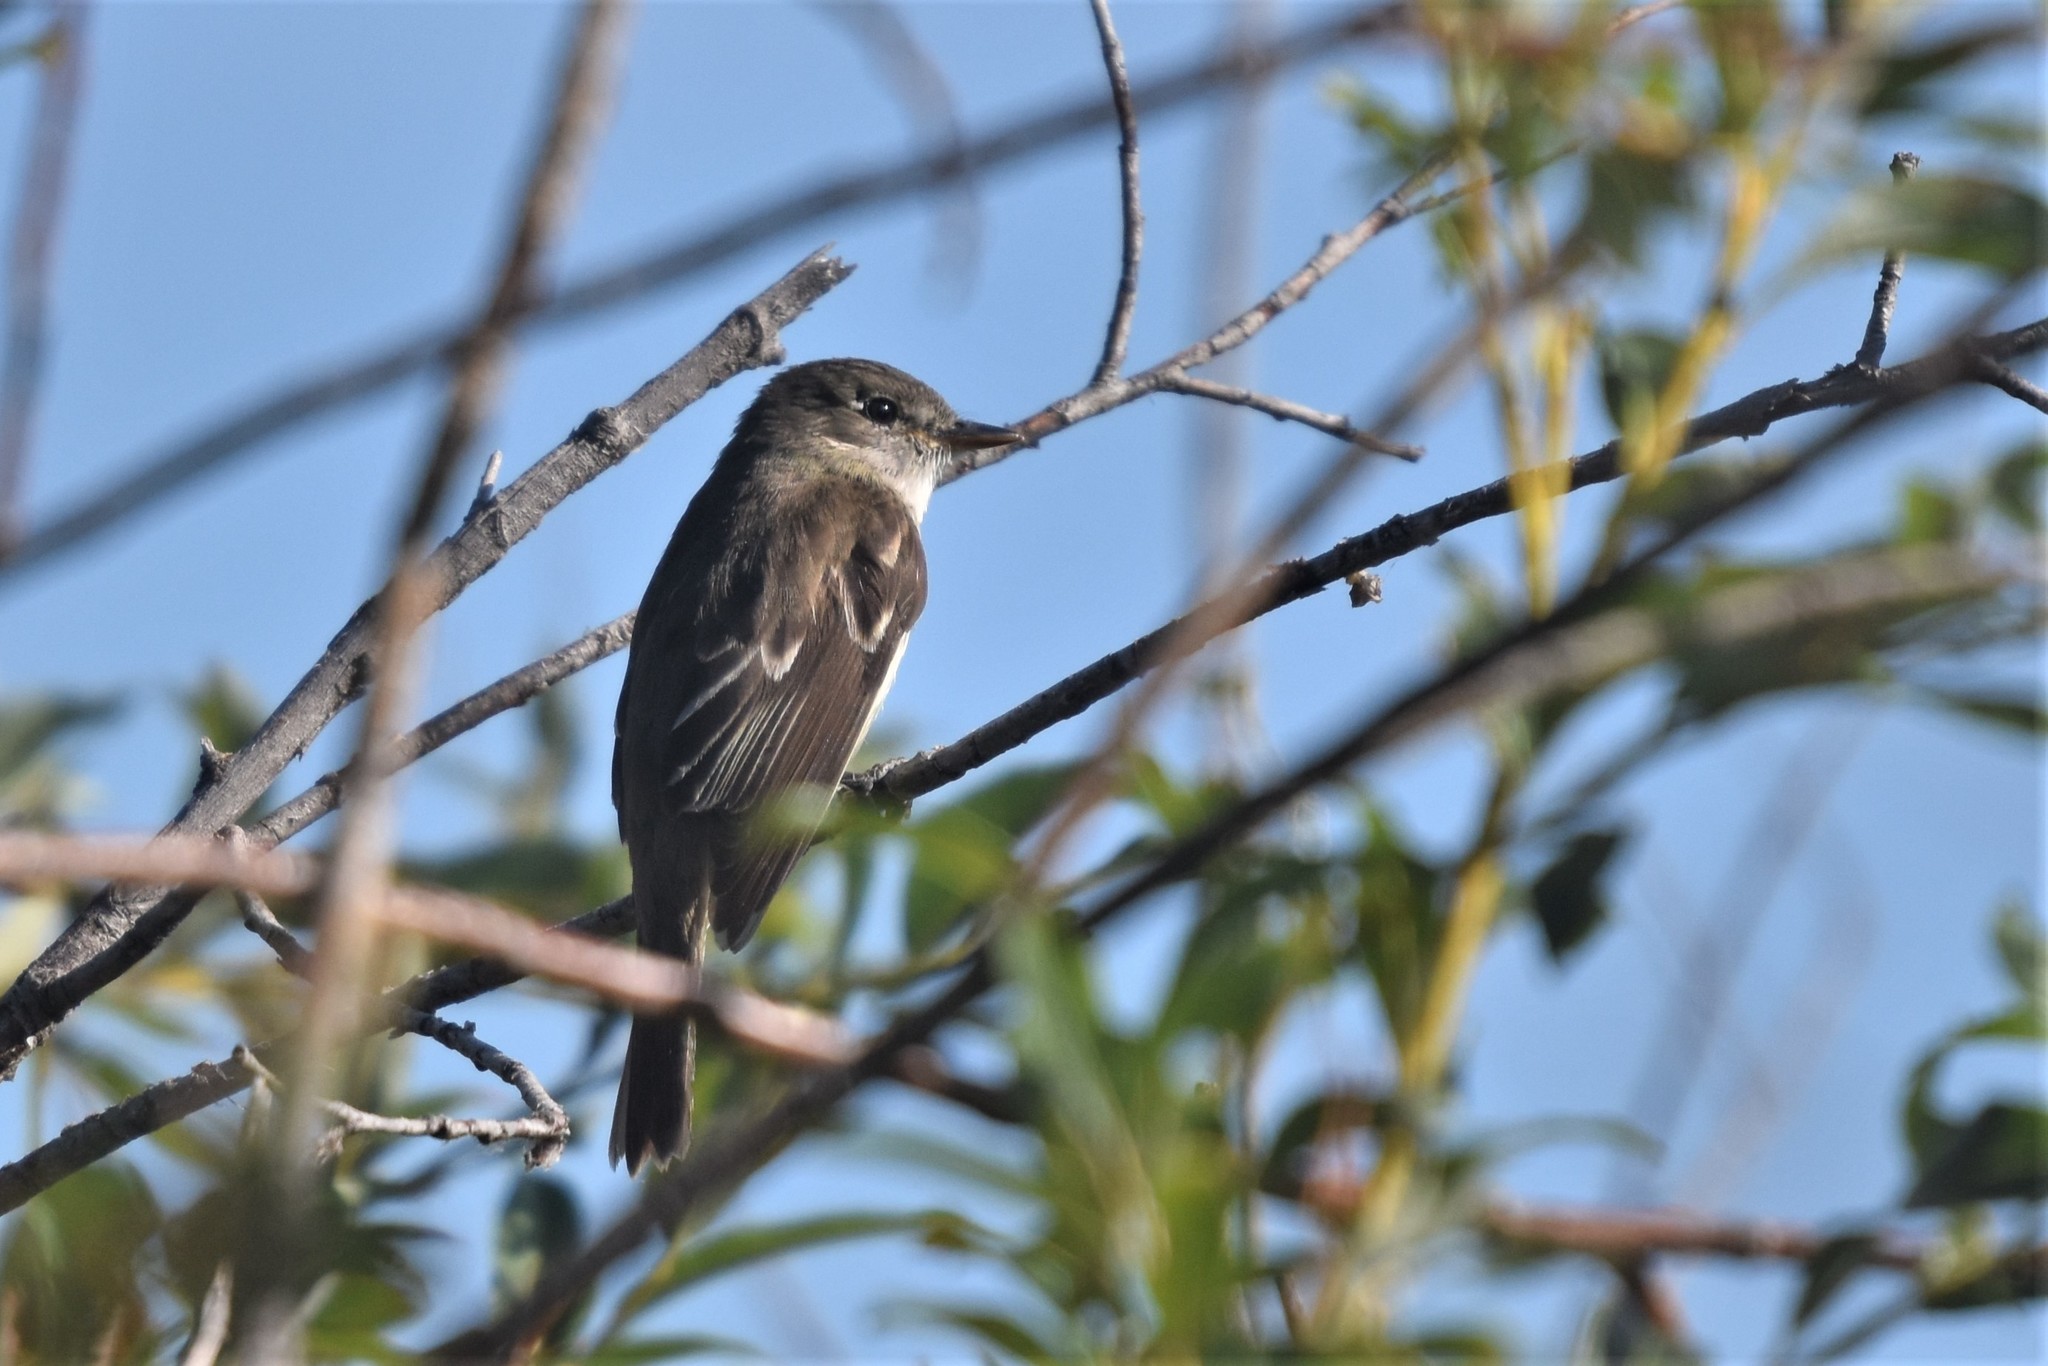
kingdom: Animalia
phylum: Chordata
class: Aves
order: Passeriformes
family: Tyrannidae
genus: Empidonax
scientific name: Empidonax alnorum
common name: Alder flycatcher
